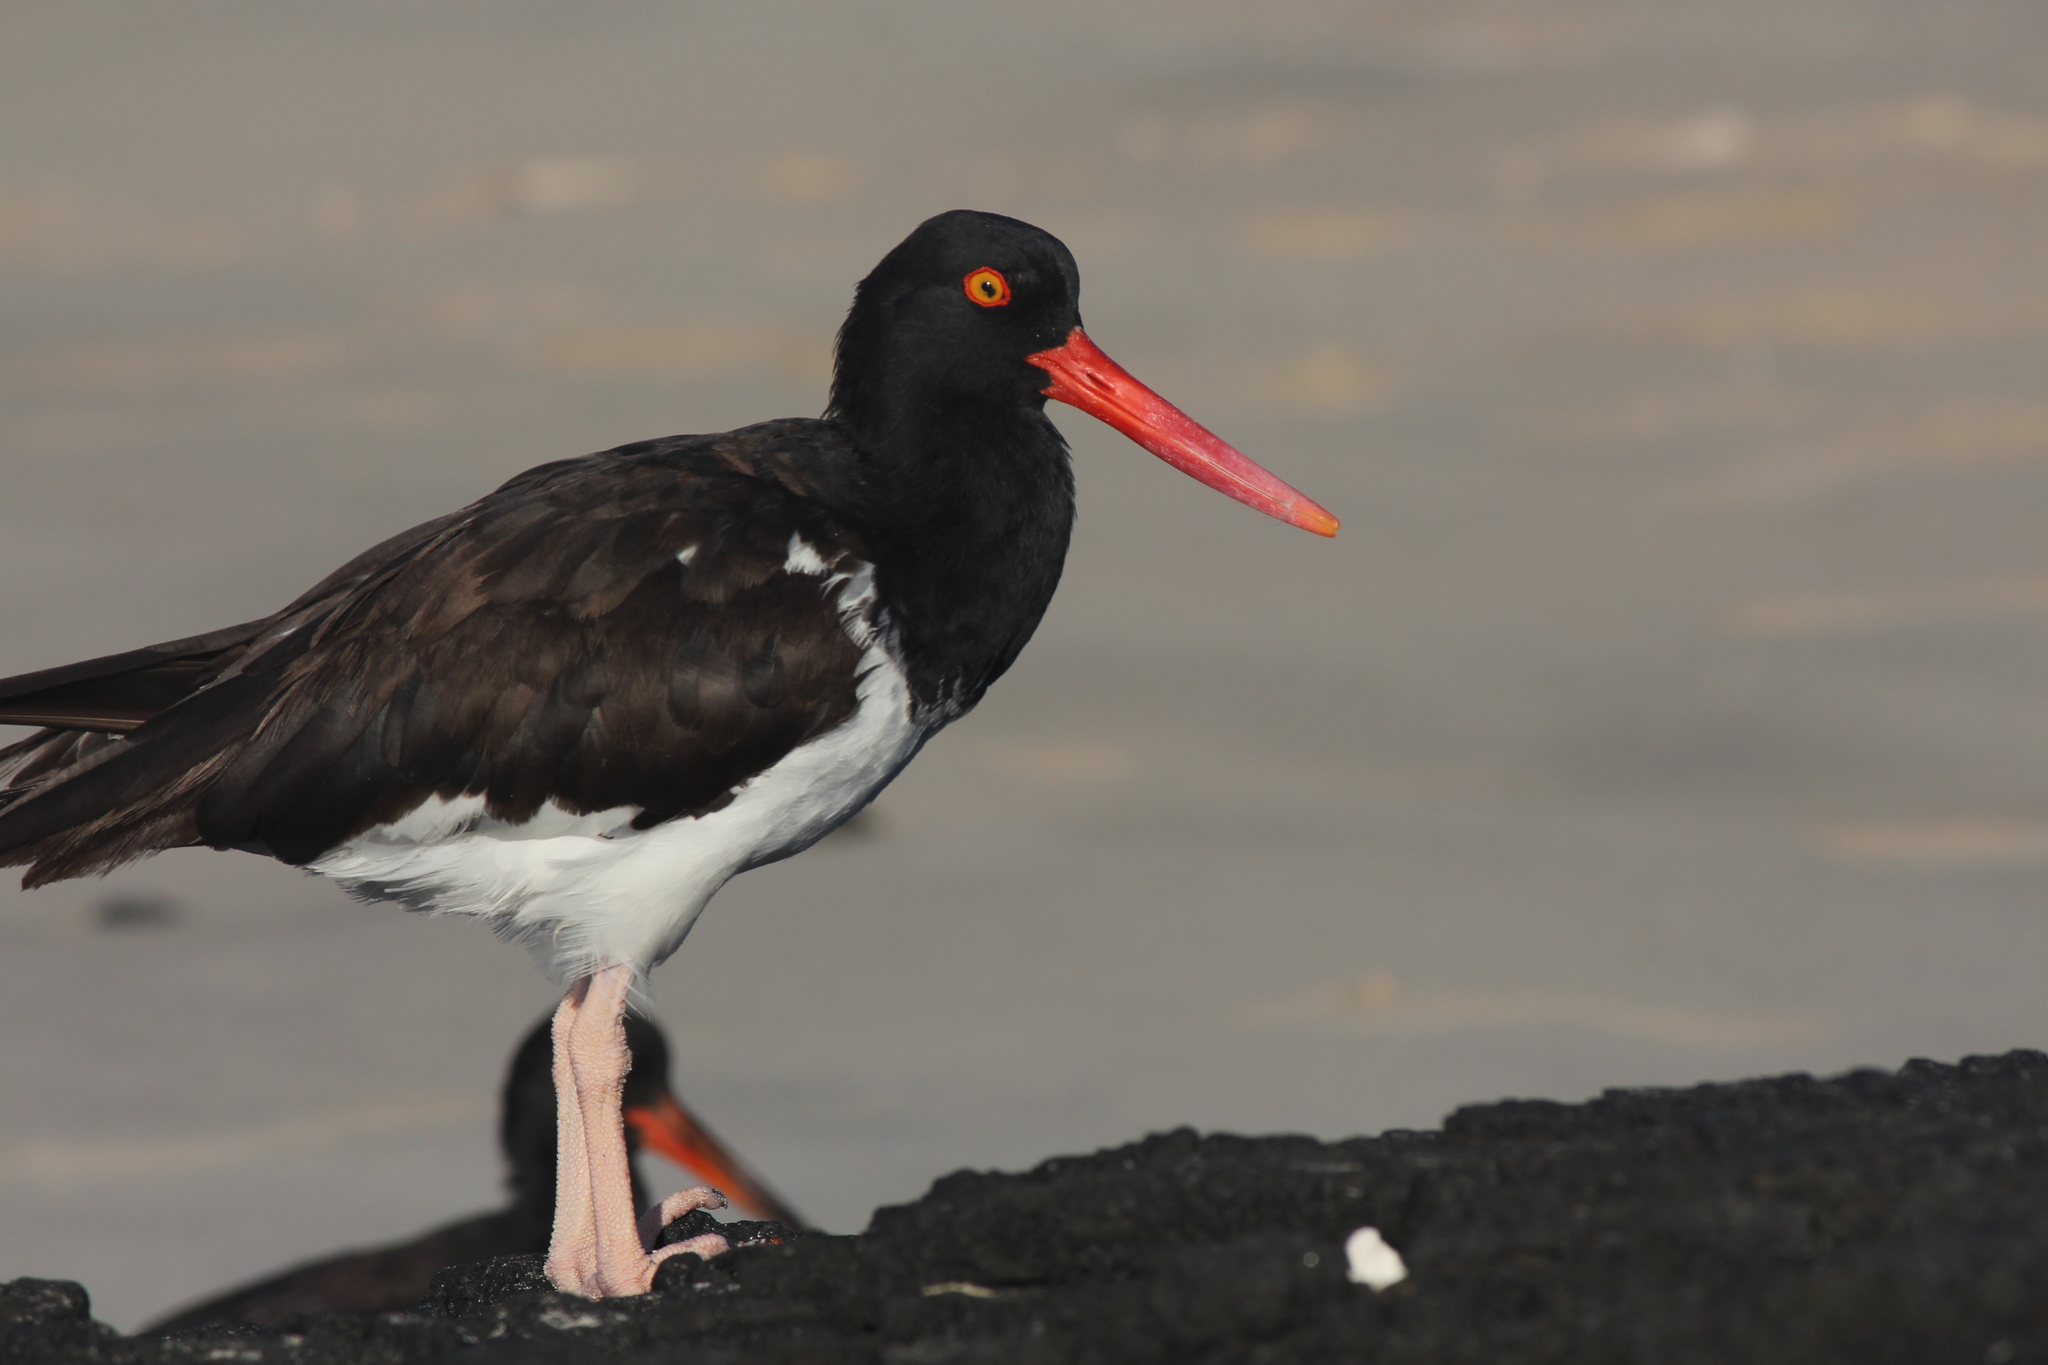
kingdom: Animalia
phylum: Chordata
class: Aves
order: Charadriiformes
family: Haematopodidae
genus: Haematopus
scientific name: Haematopus palliatus
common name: American oystercatcher
